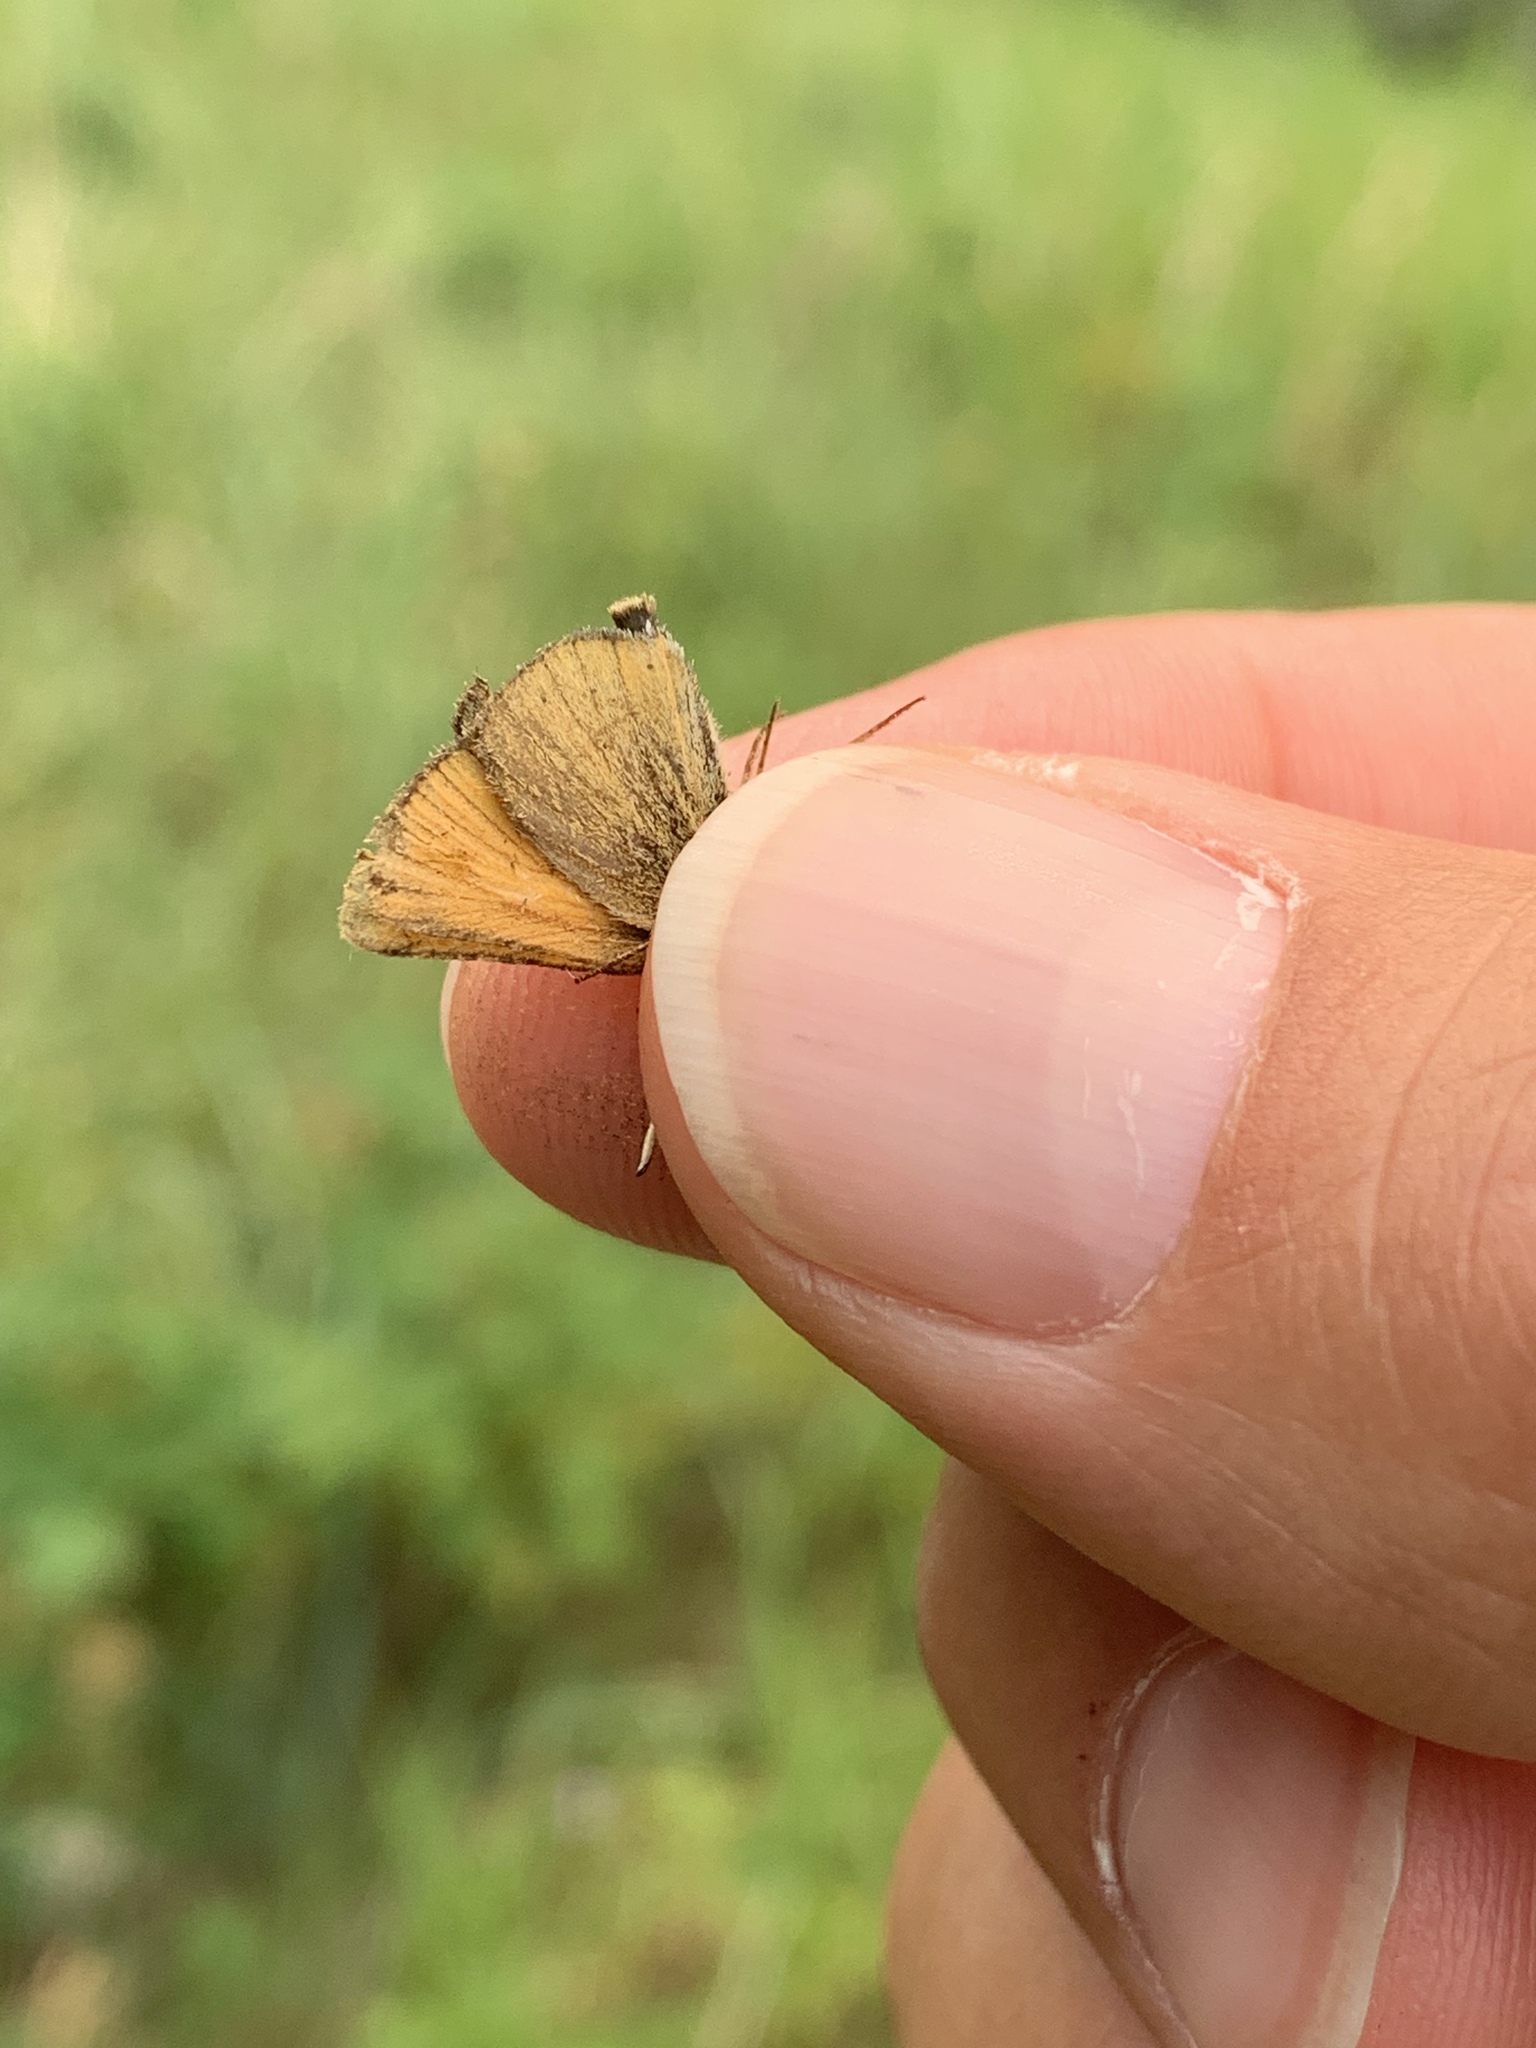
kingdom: Animalia
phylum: Arthropoda
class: Insecta
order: Lepidoptera
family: Hesperiidae
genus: Thymelicus
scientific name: Thymelicus lineola
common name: Essex skipper
